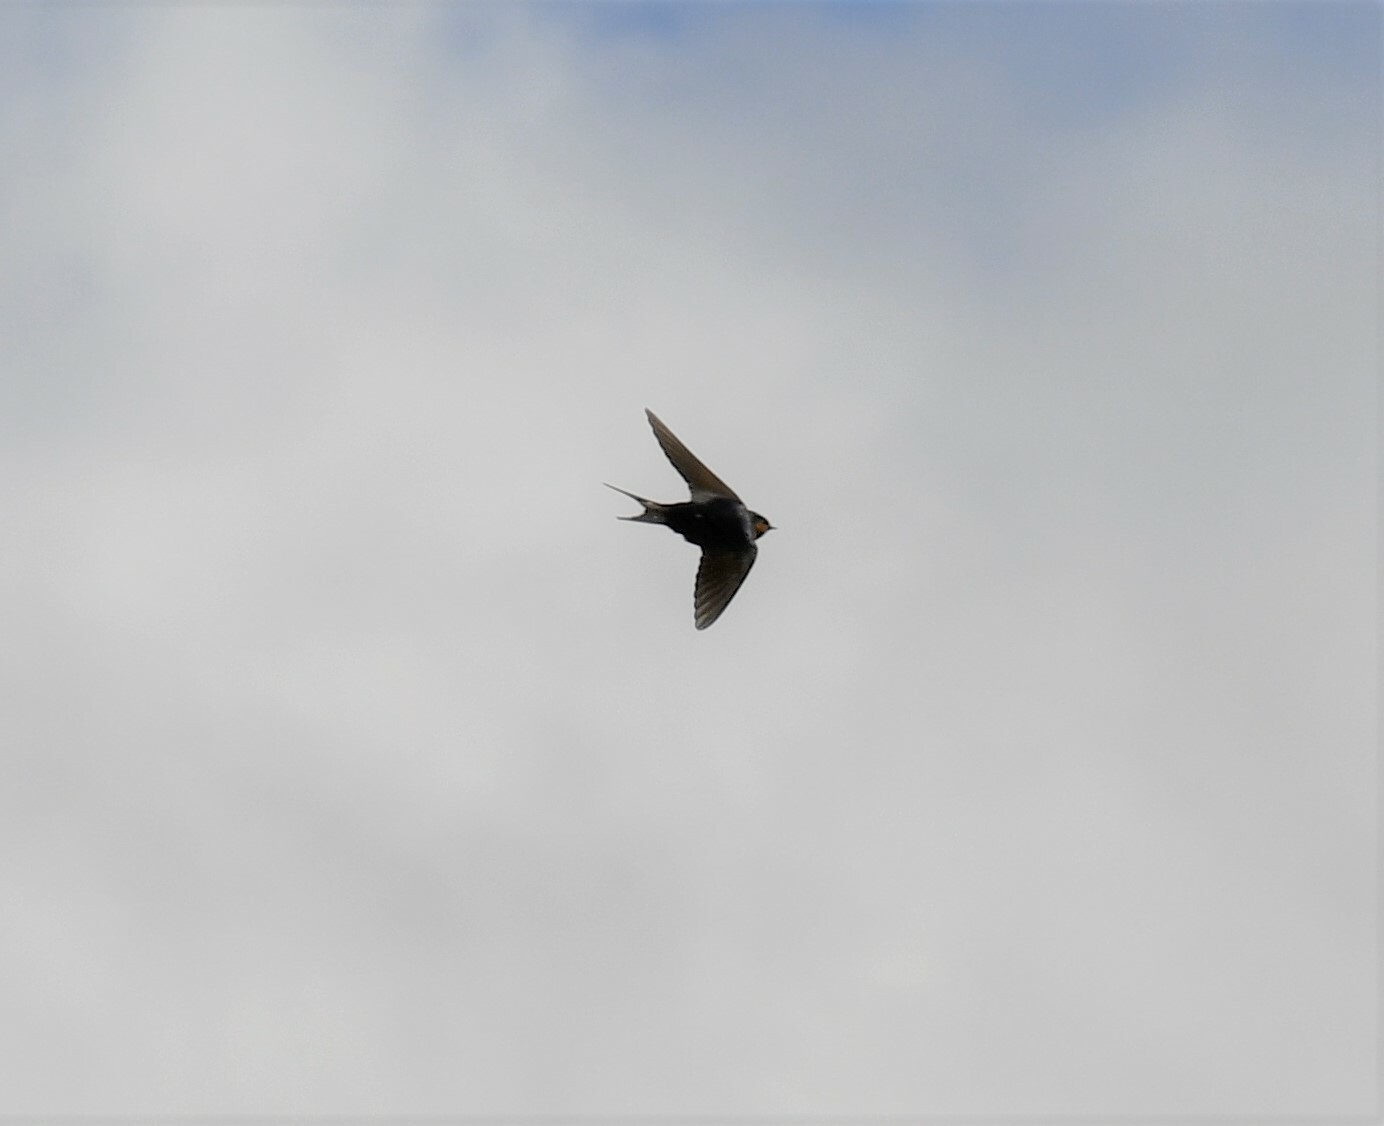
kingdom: Animalia
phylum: Chordata
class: Aves
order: Passeriformes
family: Hirundinidae
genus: Hirundo
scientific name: Hirundo neoxena
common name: Welcome swallow
